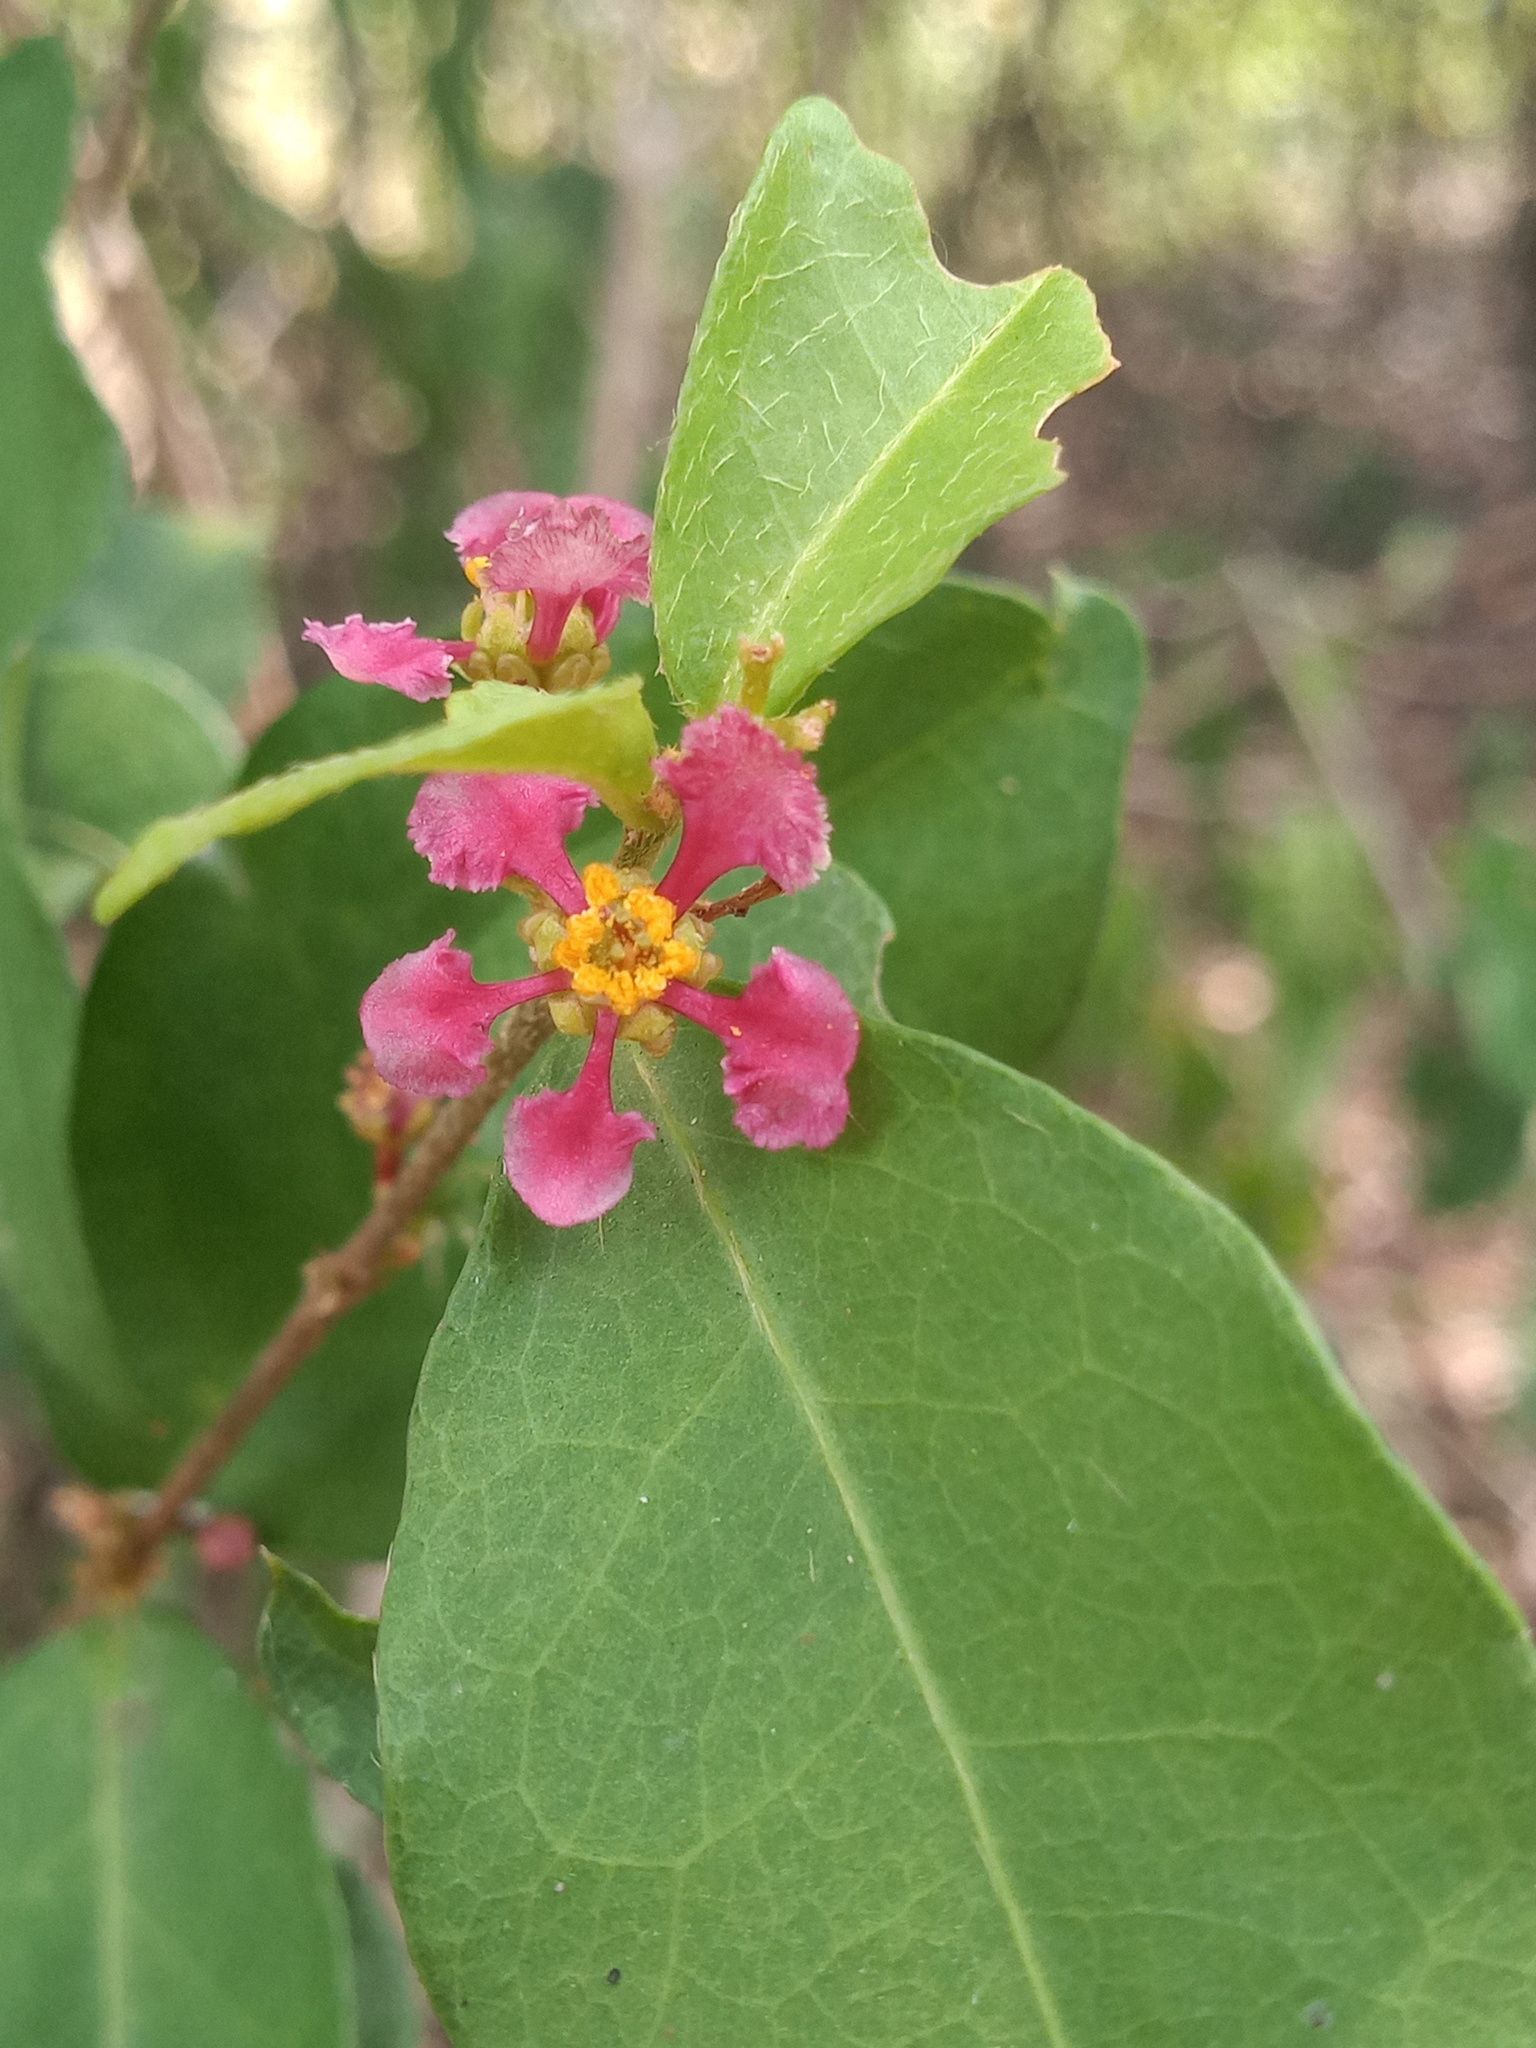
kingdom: Plantae
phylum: Tracheophyta
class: Magnoliopsida
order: Malpighiales
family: Malpighiaceae
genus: Malpighia
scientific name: Malpighia glabra
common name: Barbados cherry
